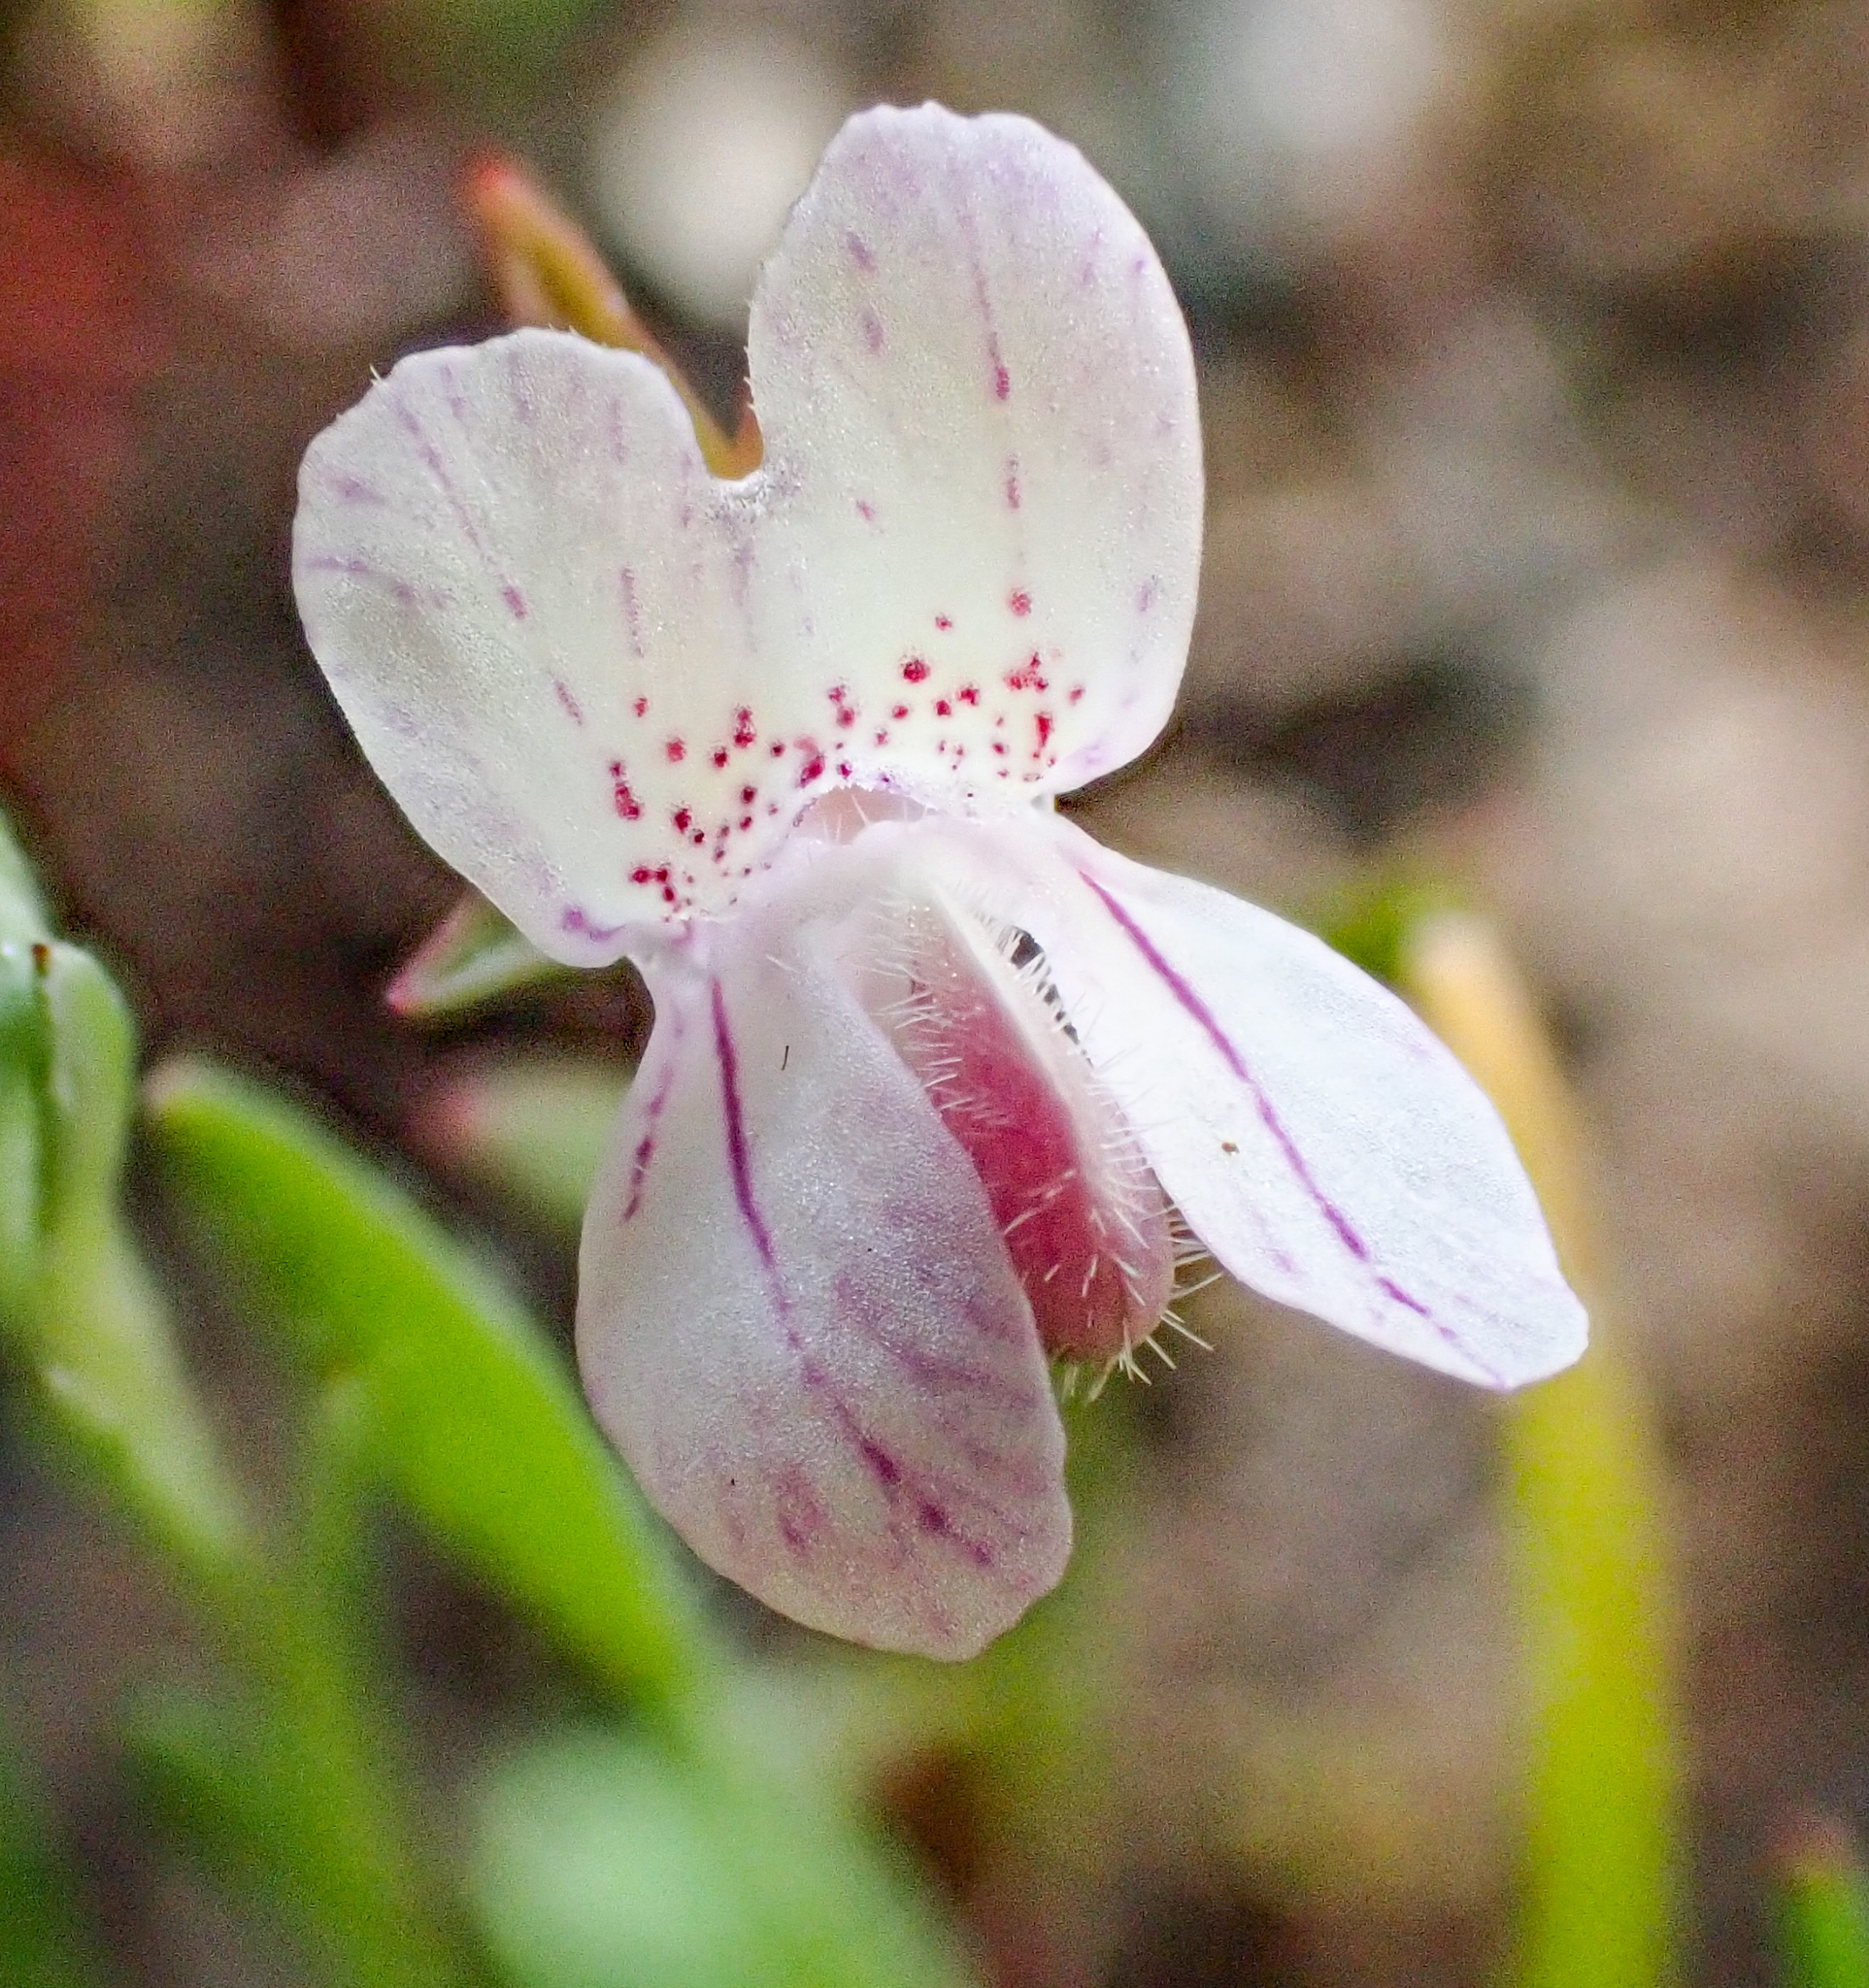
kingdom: Plantae
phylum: Tracheophyta
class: Magnoliopsida
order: Lamiales
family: Plantaginaceae
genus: Collinsia
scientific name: Collinsia sparsiflora
